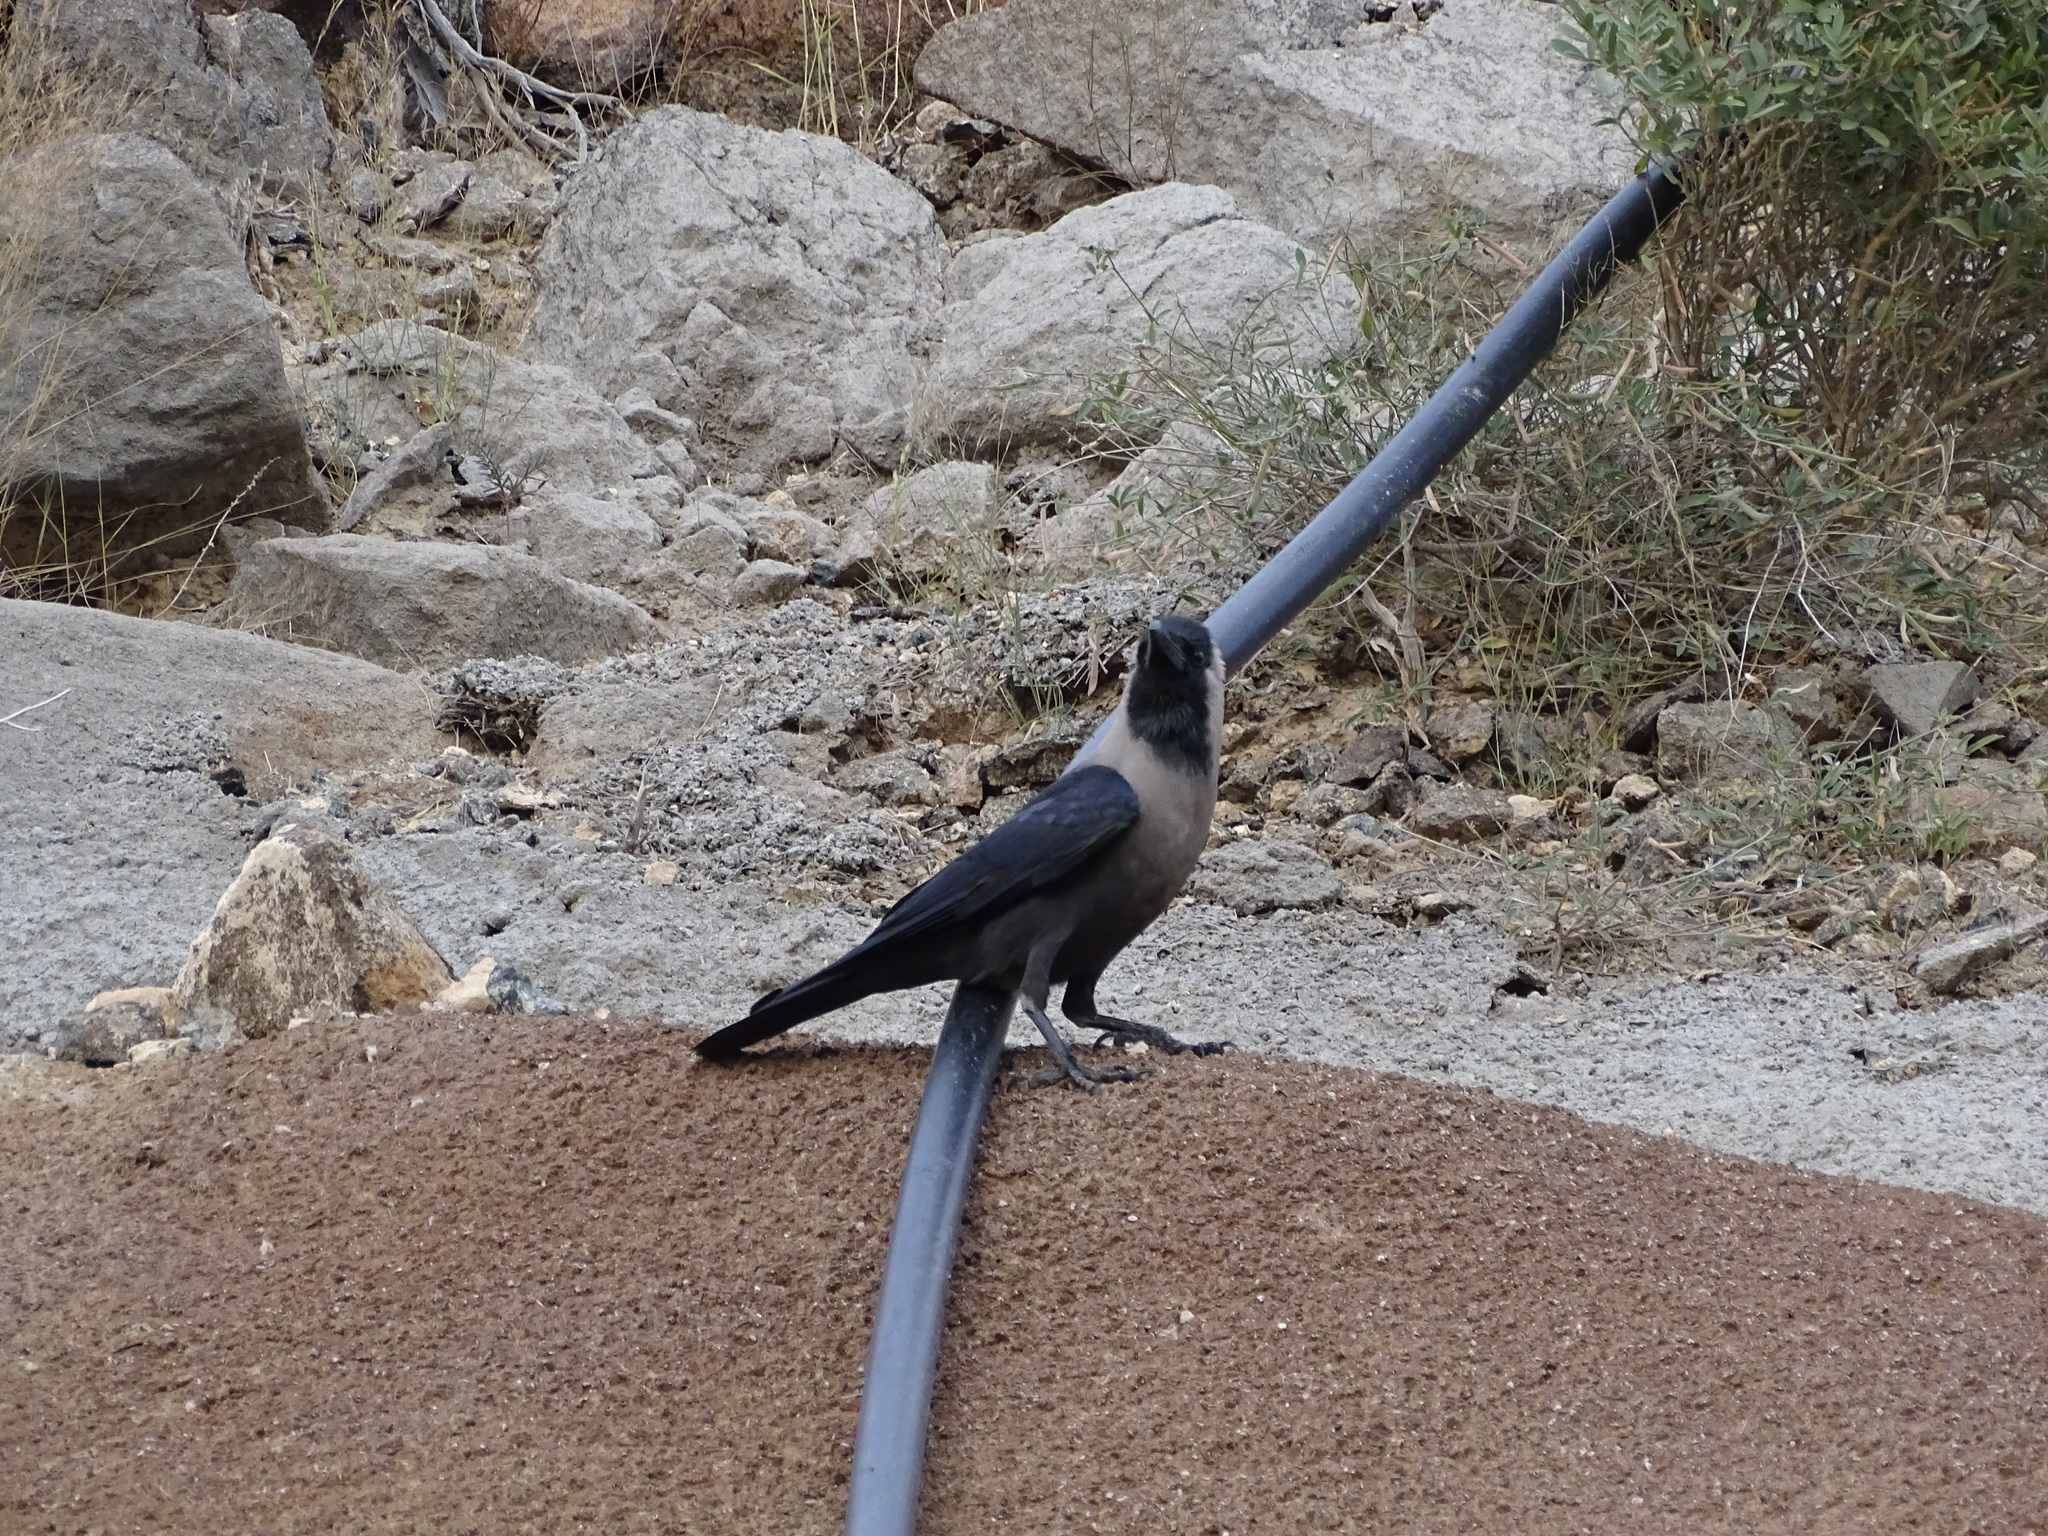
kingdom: Animalia
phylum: Chordata
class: Aves
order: Passeriformes
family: Corvidae
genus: Corvus
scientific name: Corvus splendens
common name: House crow
